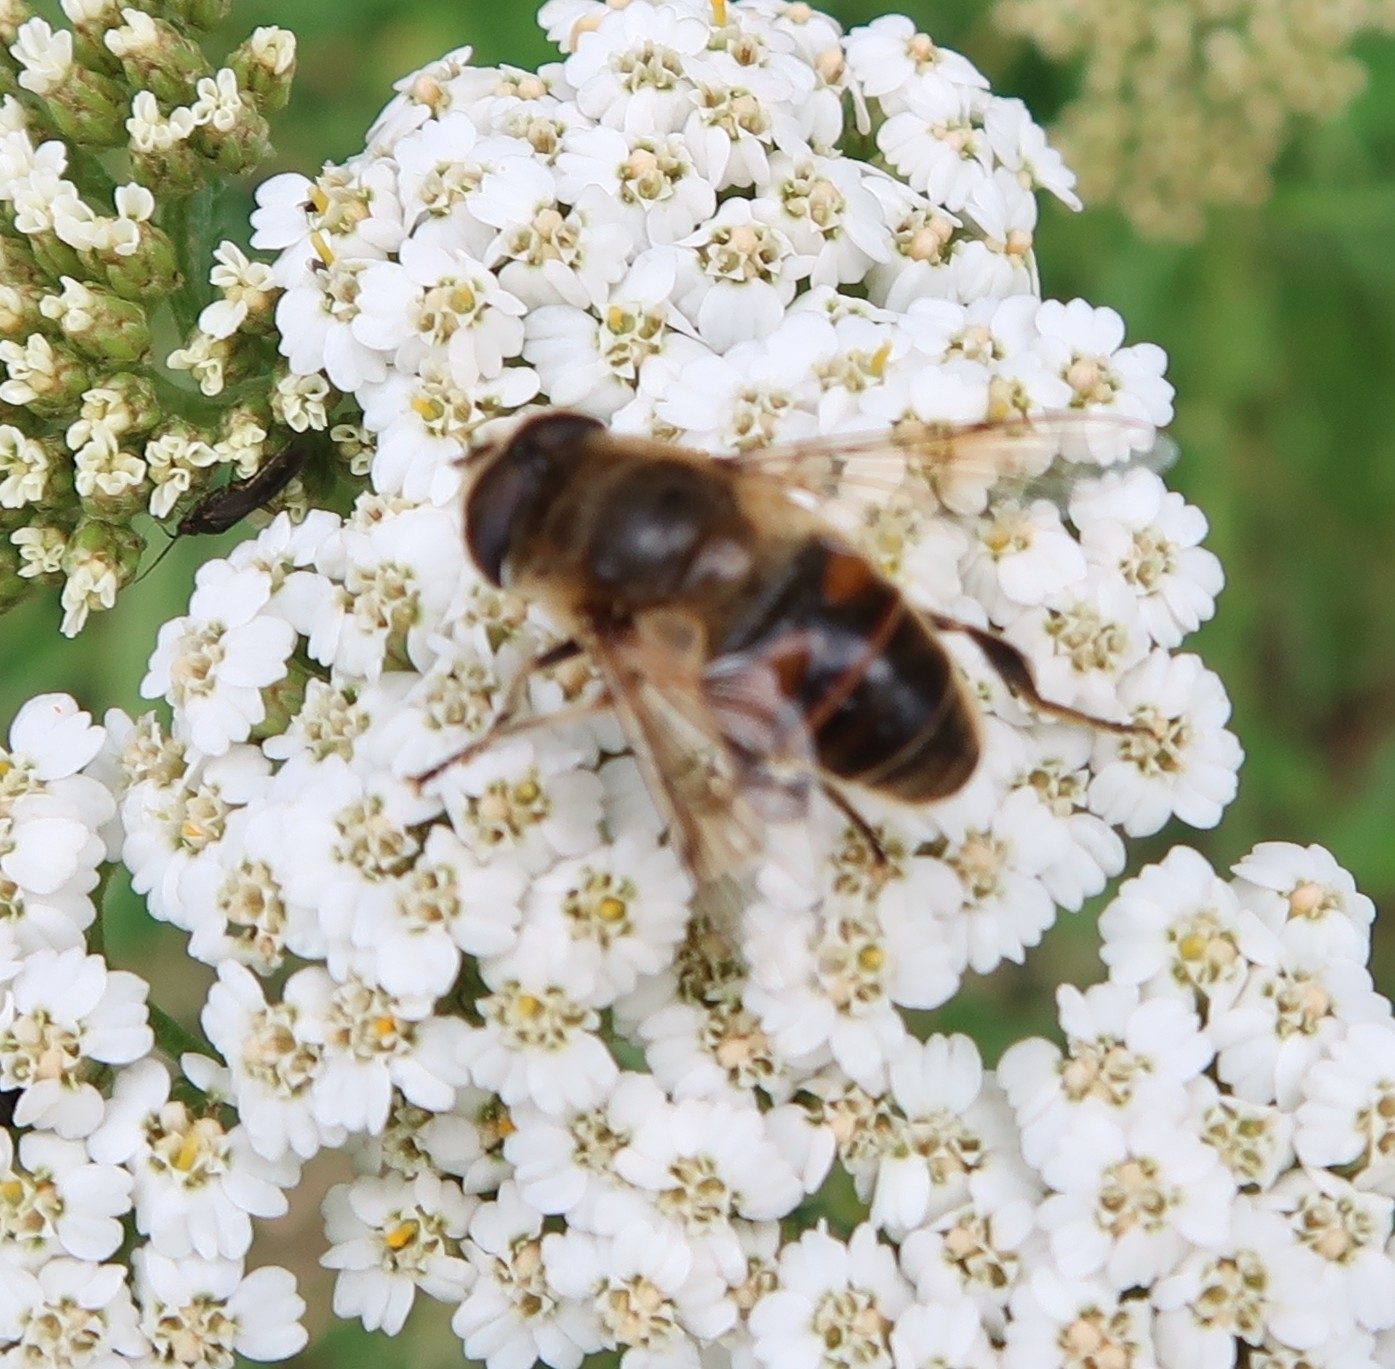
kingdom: Animalia
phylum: Arthropoda
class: Insecta
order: Diptera
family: Syrphidae
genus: Eristalis
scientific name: Eristalis tenax
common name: Drone fly
